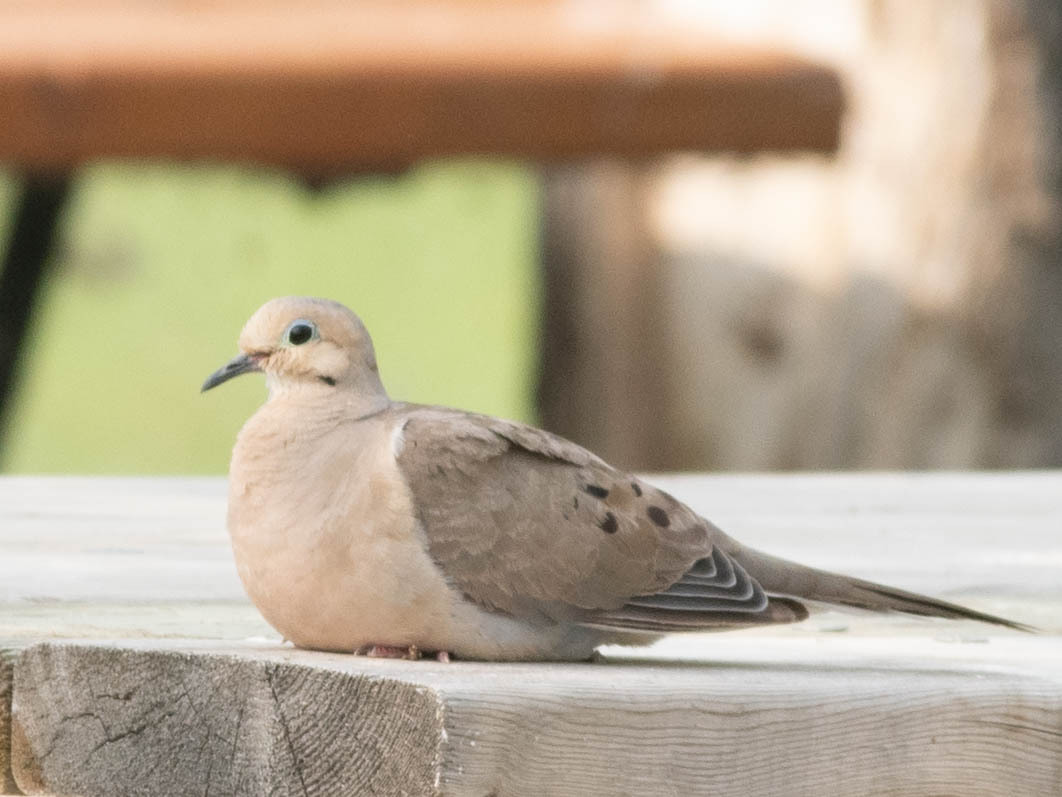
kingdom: Animalia
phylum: Chordata
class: Aves
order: Columbiformes
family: Columbidae
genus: Zenaida
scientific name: Zenaida macroura
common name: Mourning dove
